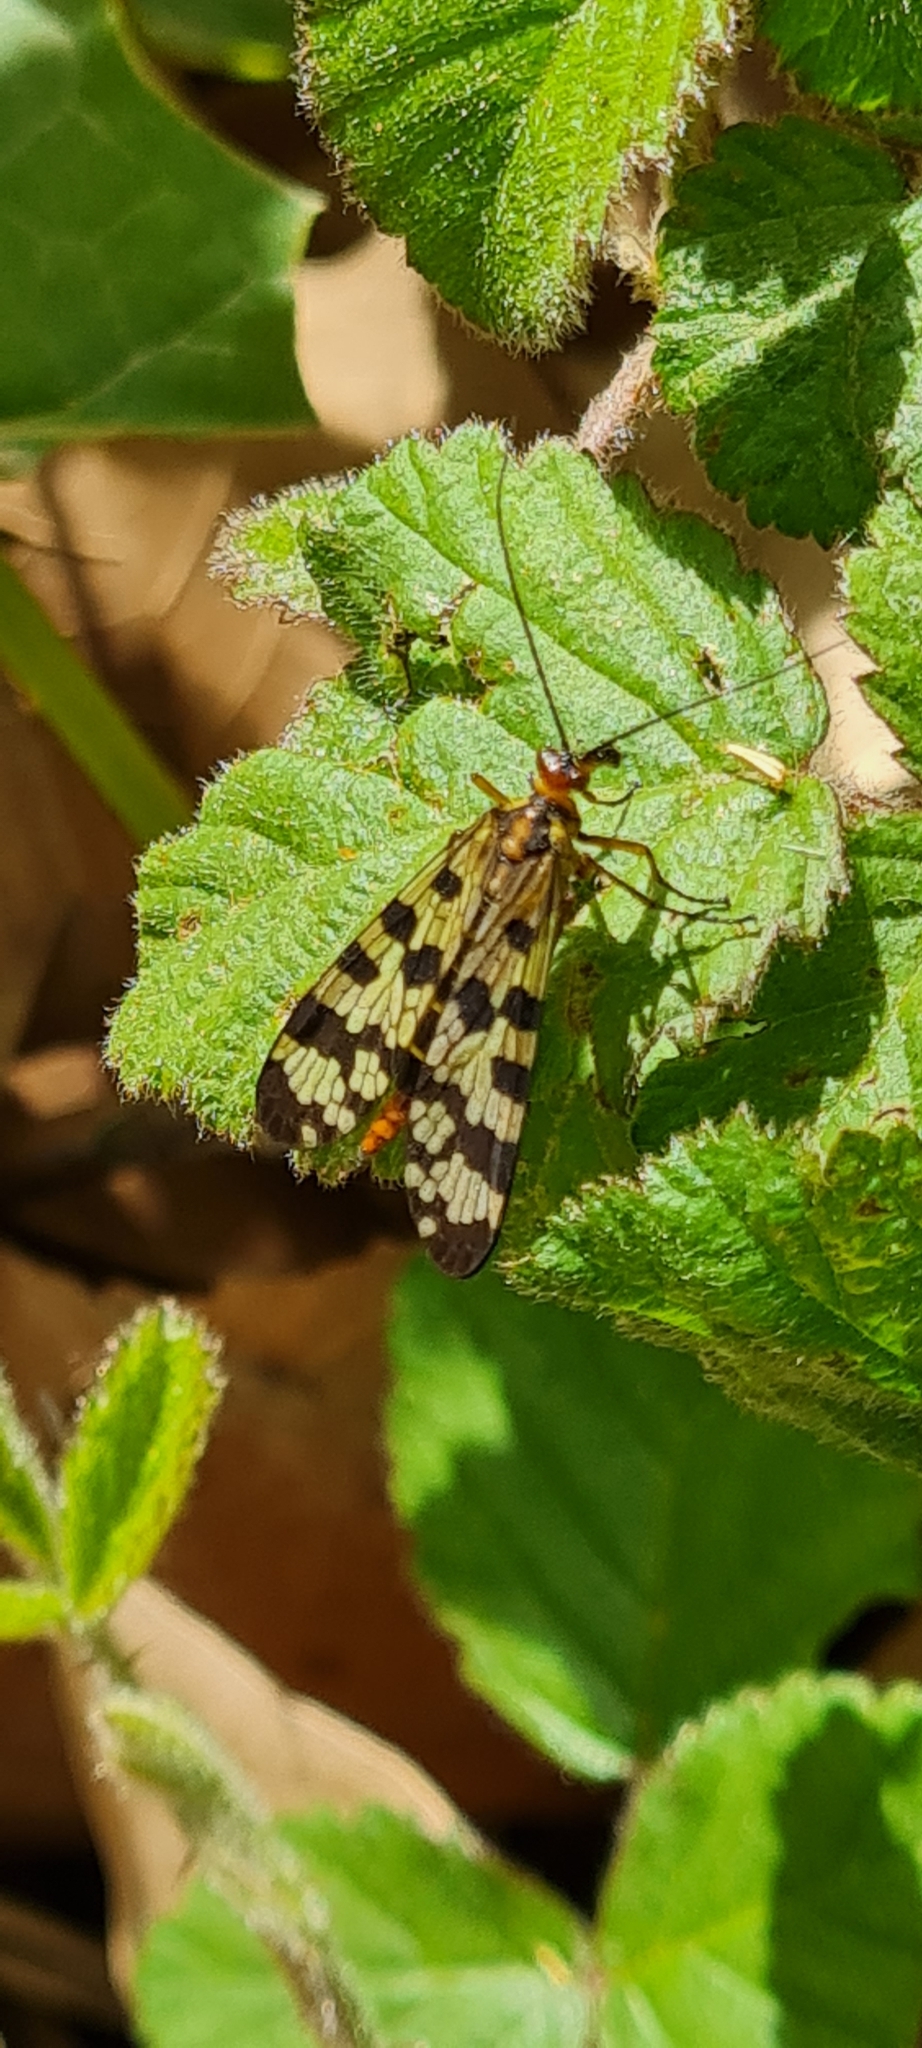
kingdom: Animalia
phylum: Arthropoda
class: Insecta
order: Mecoptera
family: Panorpidae
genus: Panorpa
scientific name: Panorpa meridionalis
